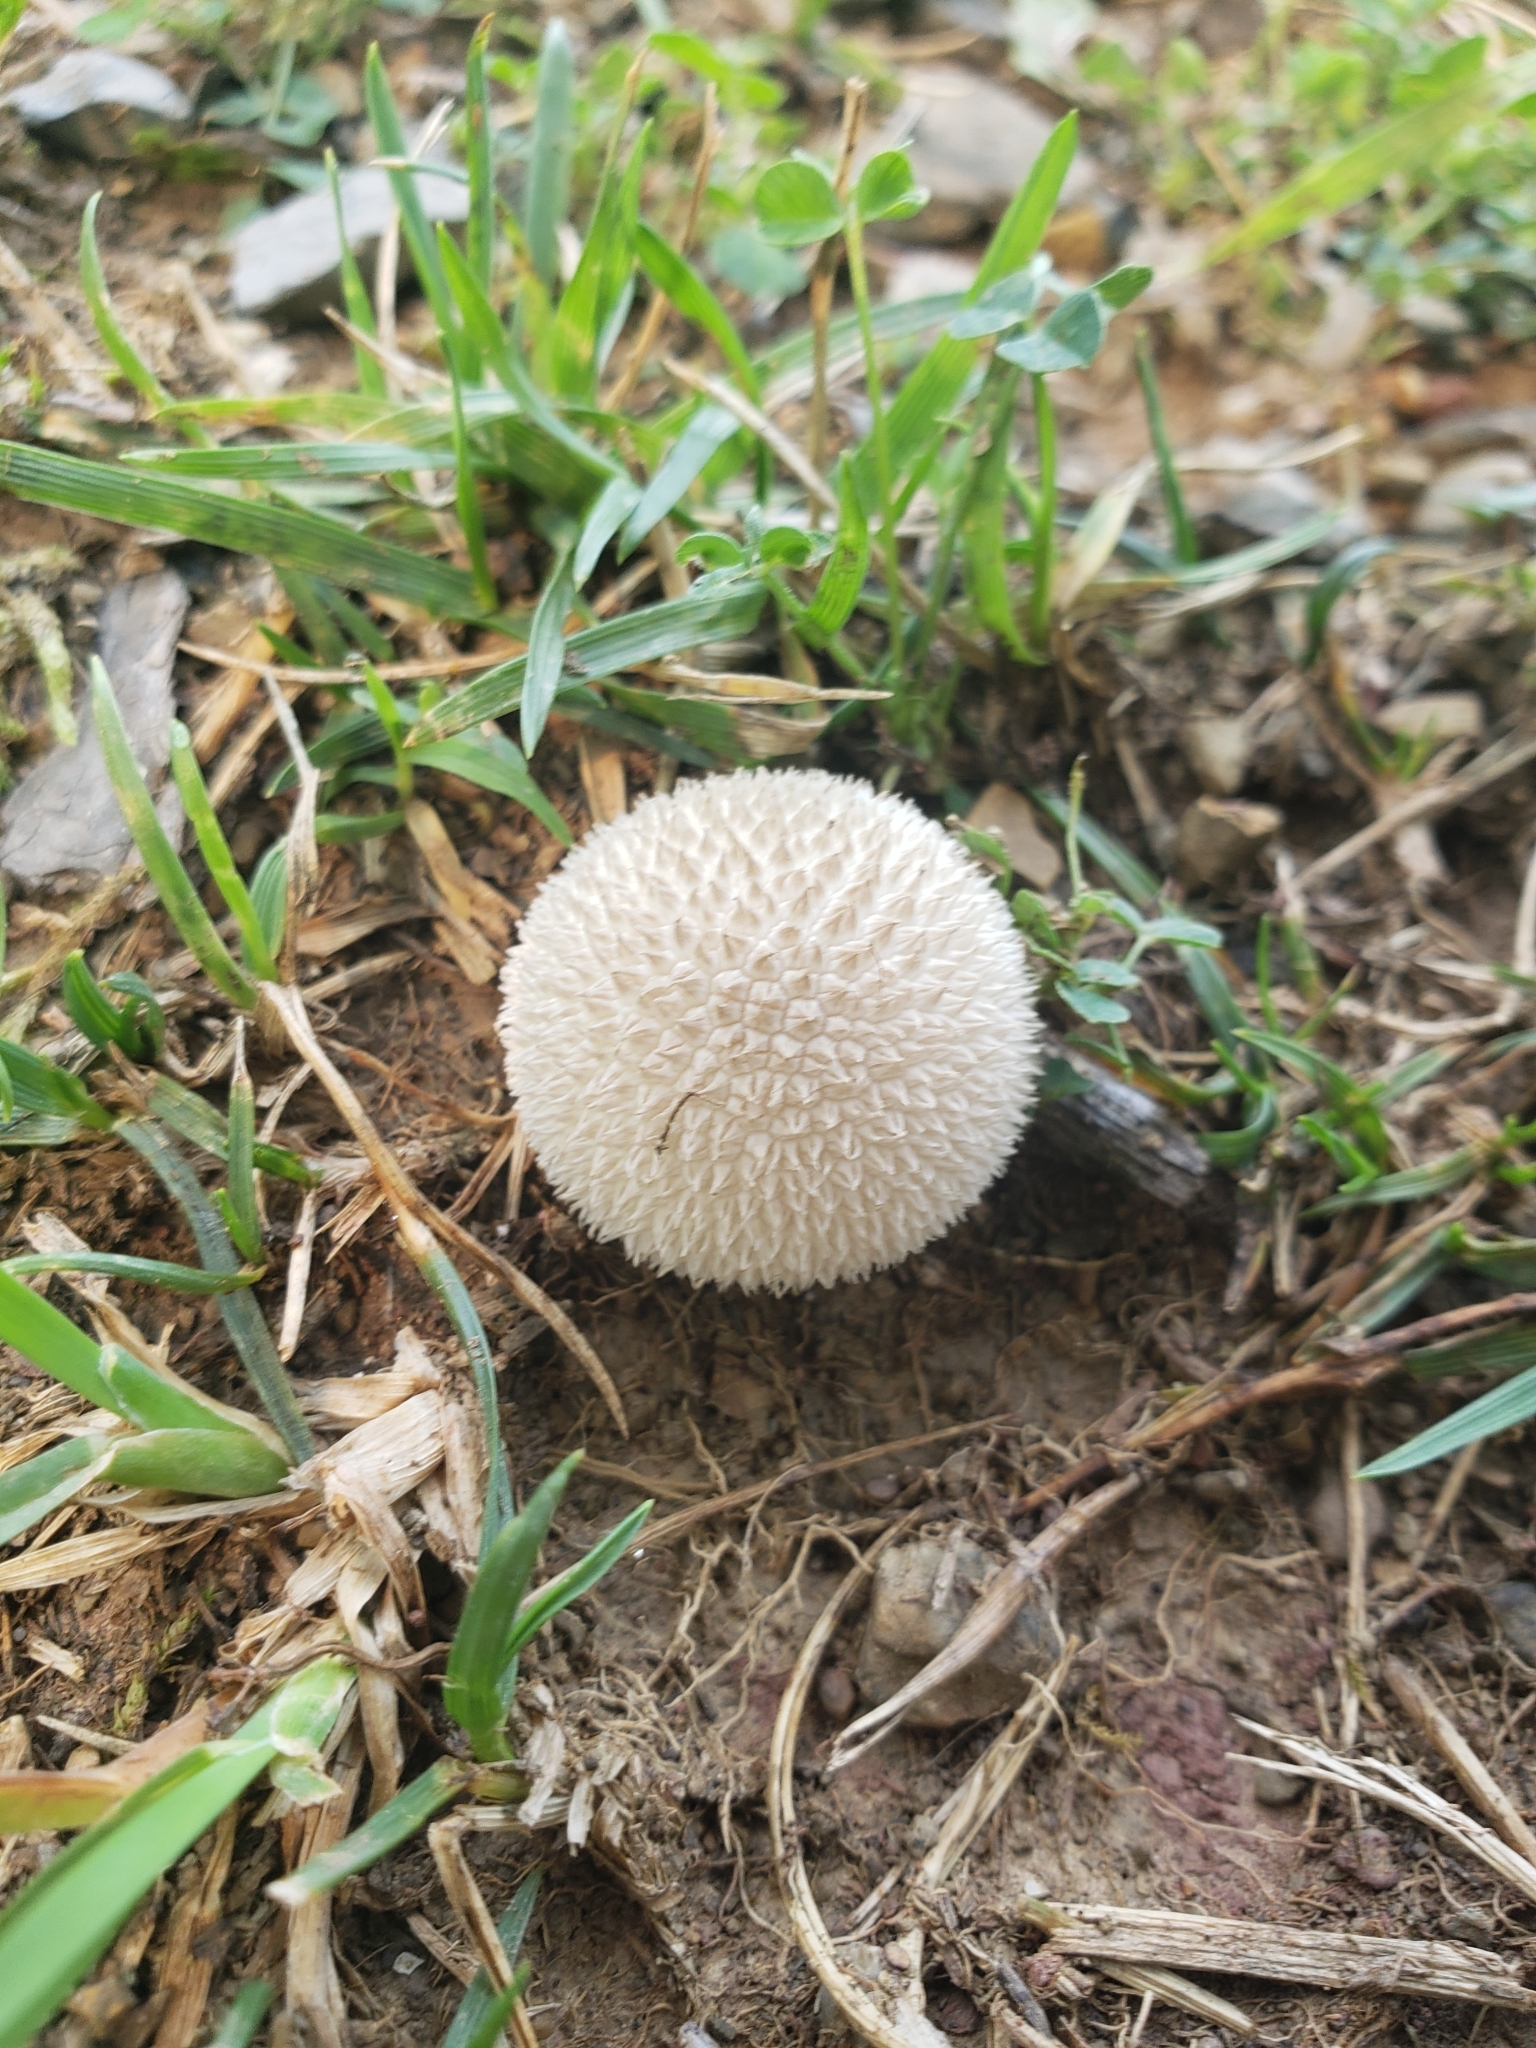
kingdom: Fungi
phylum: Basidiomycota
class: Agaricomycetes
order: Agaricales
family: Agaricaceae
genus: Lycoperdon
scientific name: Lycoperdon marginatum
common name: Peeling puffball
